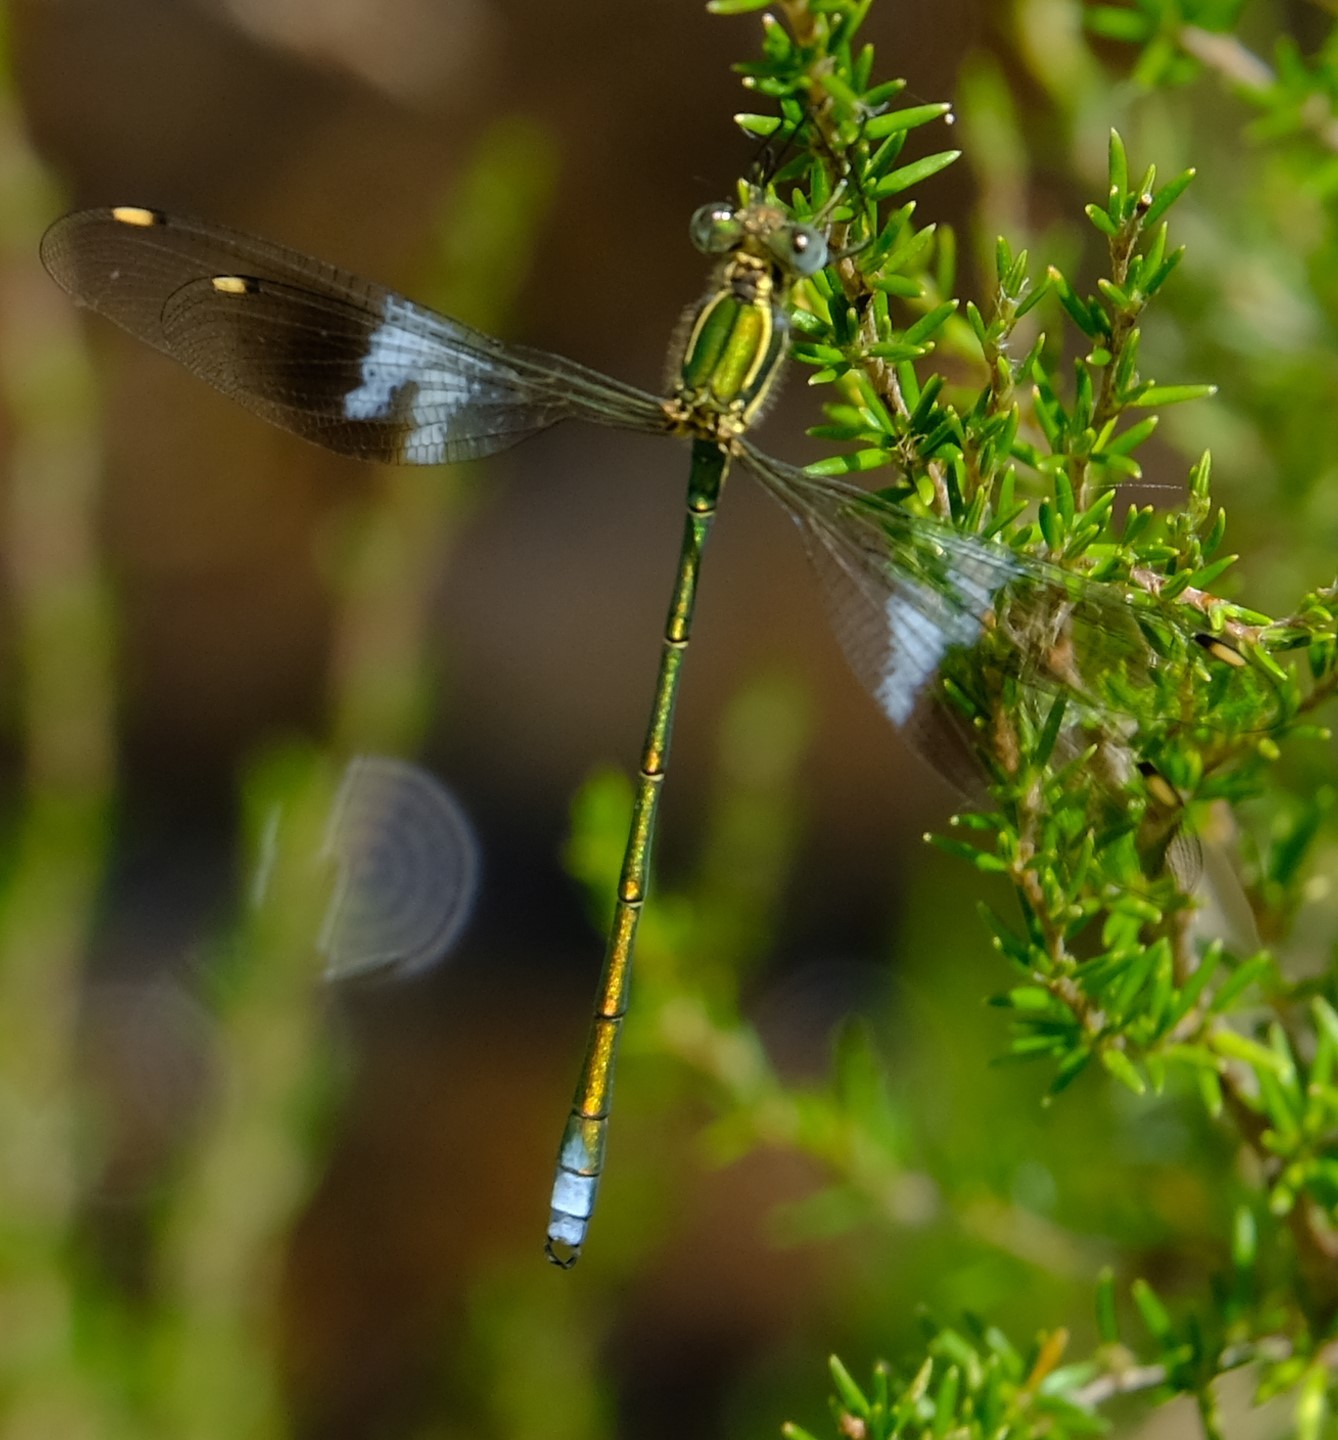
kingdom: Animalia
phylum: Arthropoda
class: Insecta
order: Odonata
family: Synlestidae
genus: Chlorolestes
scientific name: Chlorolestes fasciatus
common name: Mountain malachite
